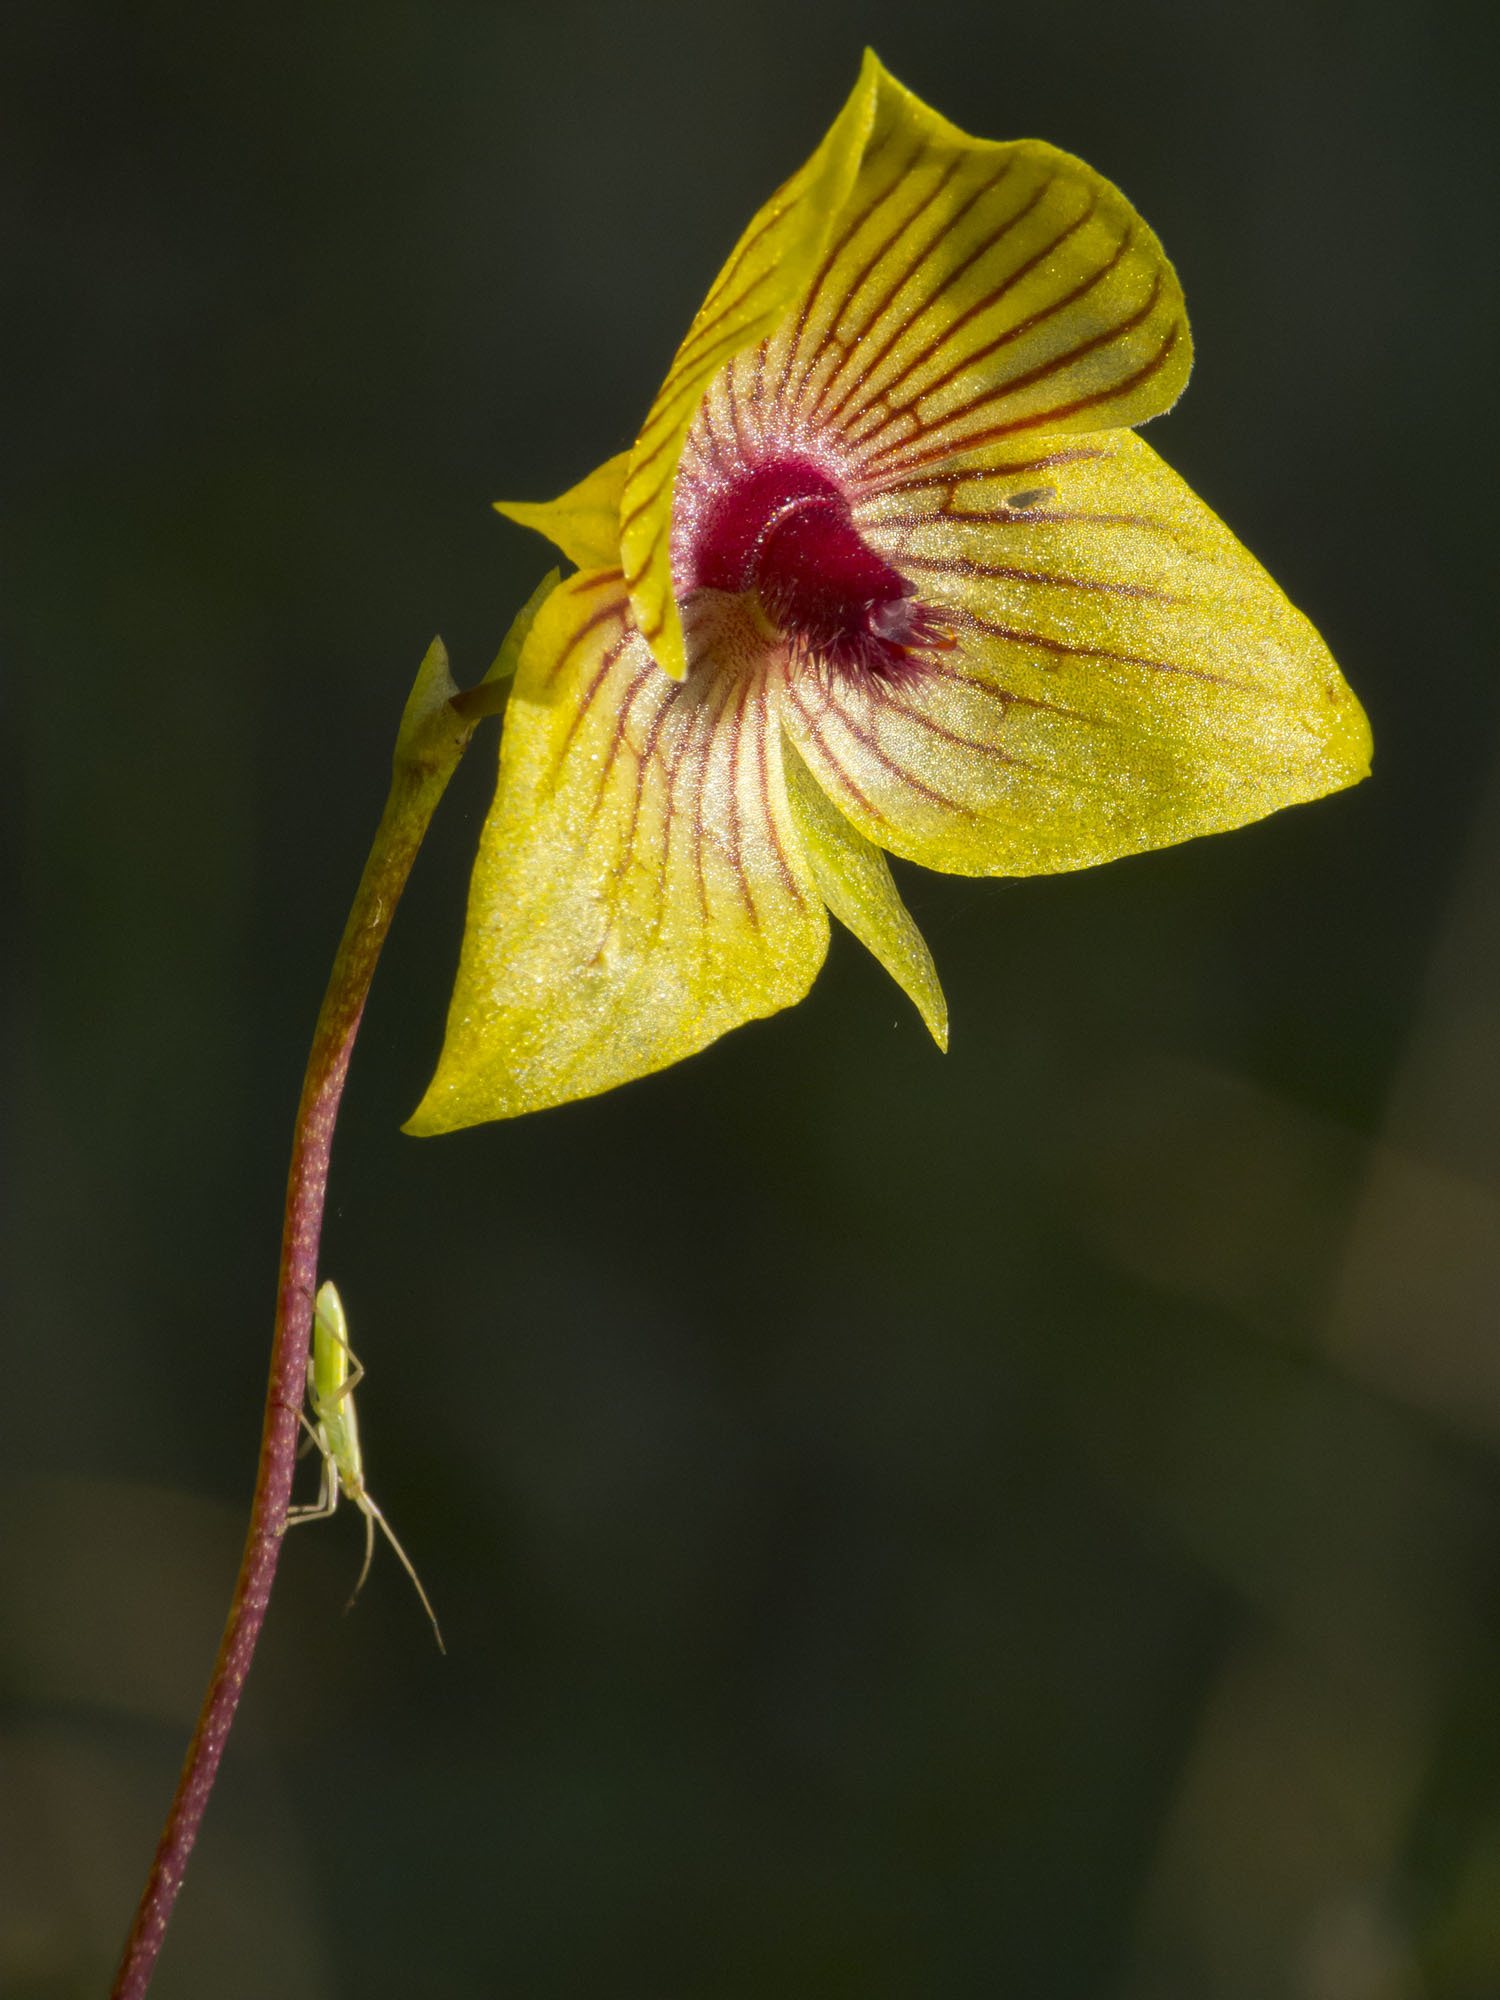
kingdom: Plantae
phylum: Tracheophyta
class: Liliopsida
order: Asparagales
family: Orchidaceae
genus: Telipogon
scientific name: Telipogon nervosus
